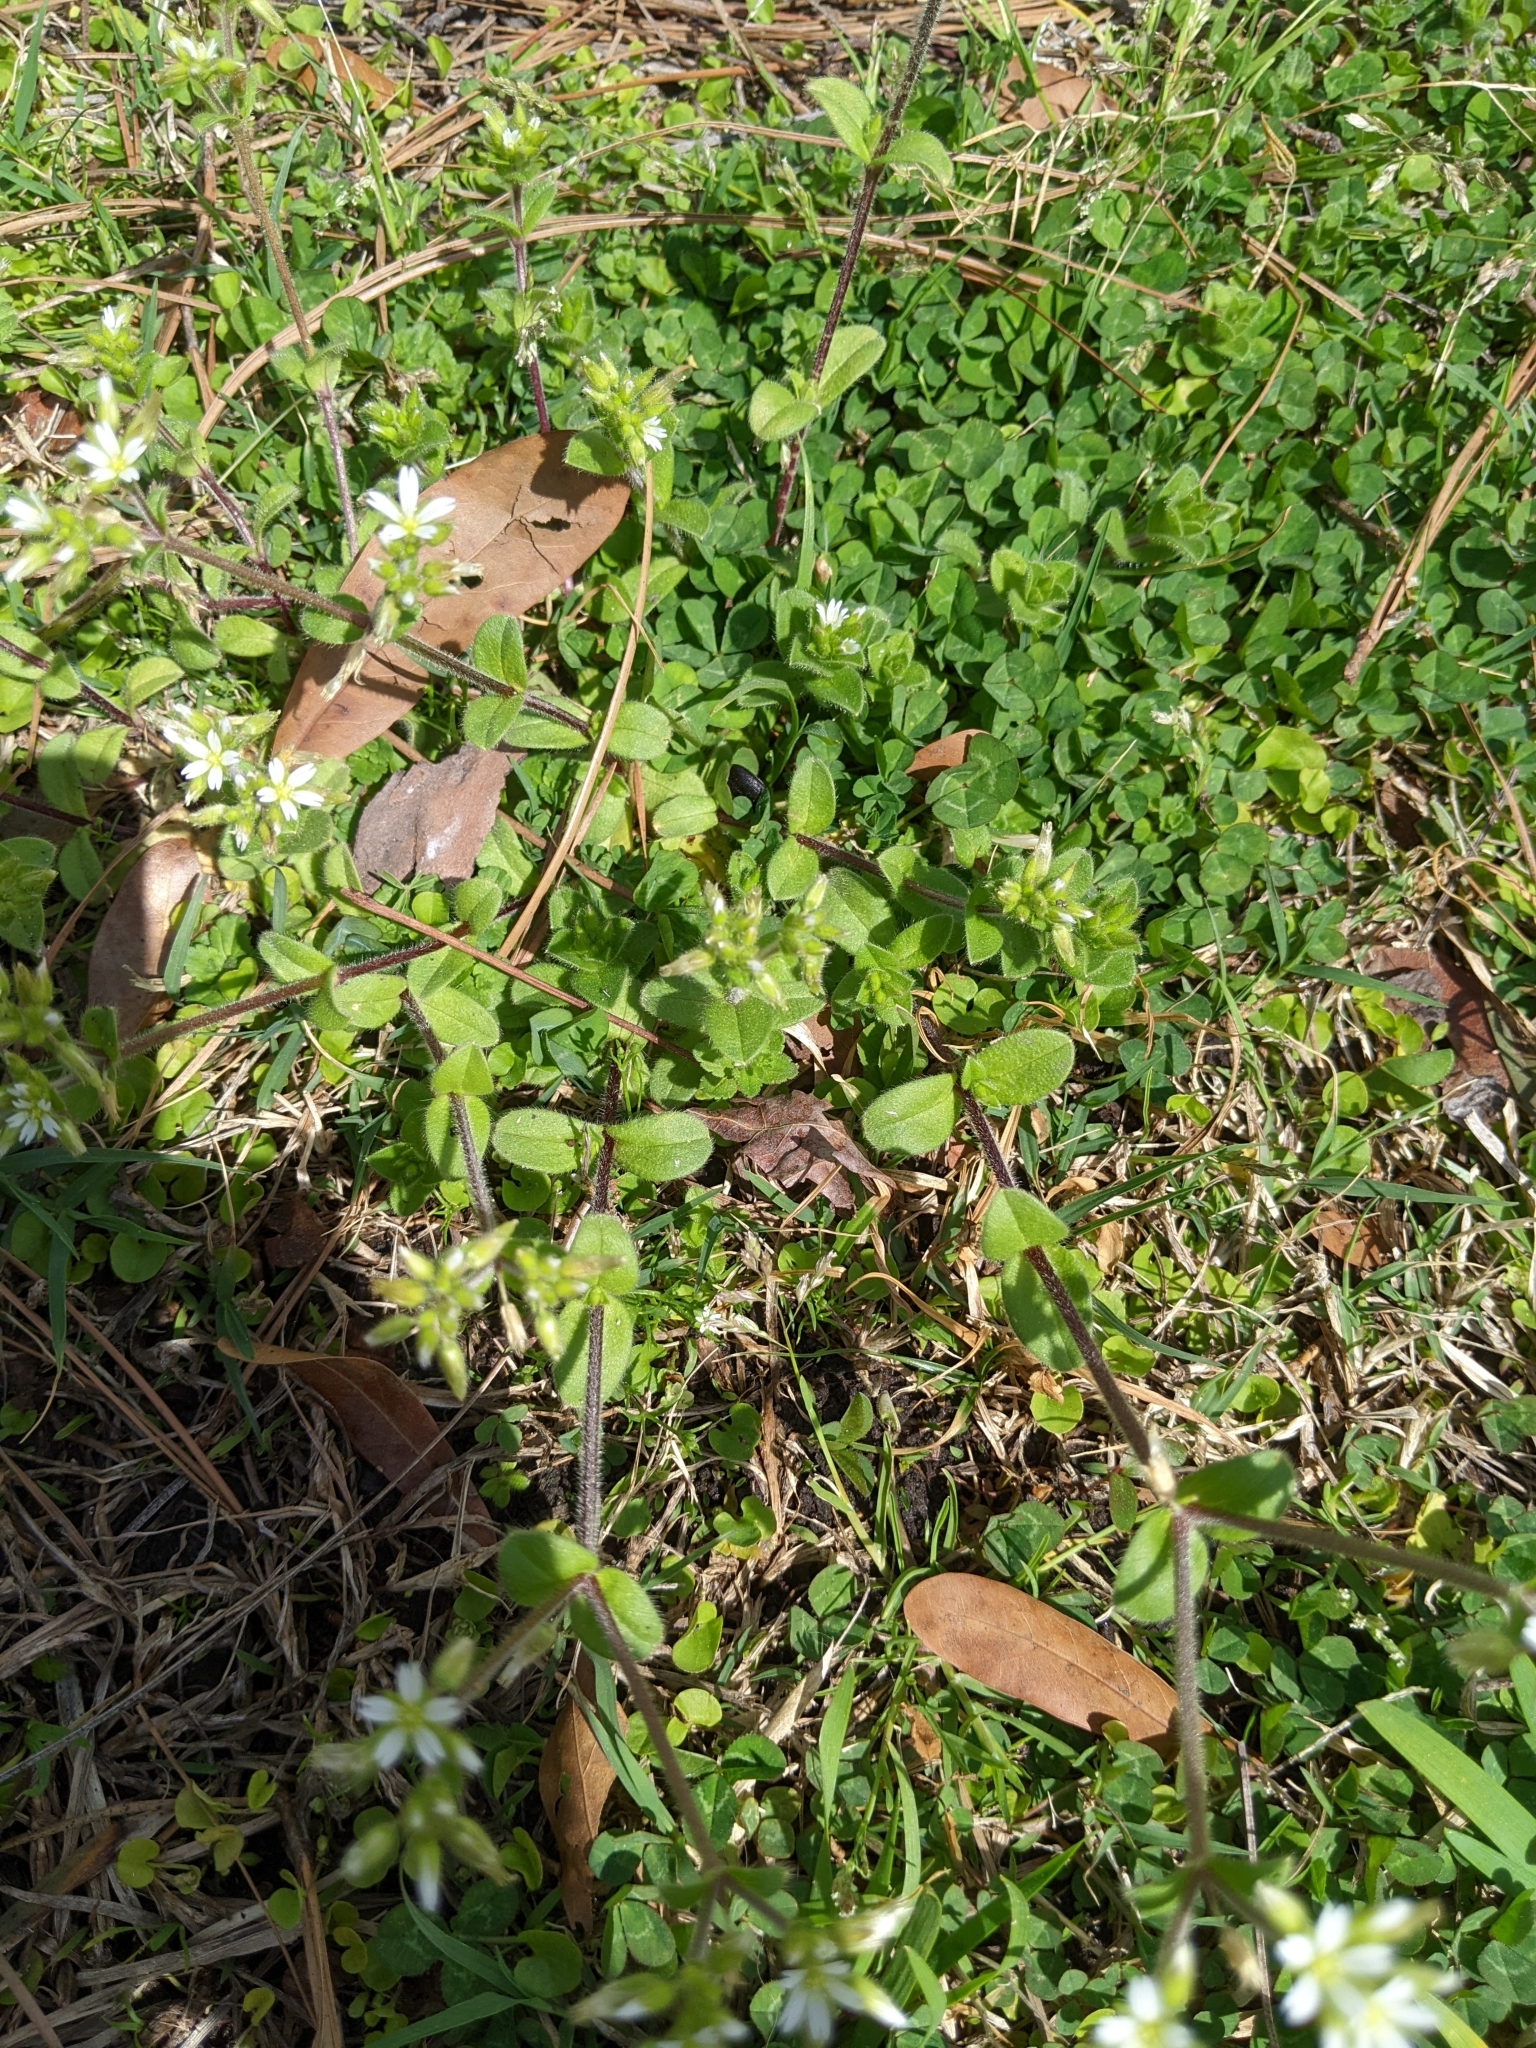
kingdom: Plantae
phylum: Tracheophyta
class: Magnoliopsida
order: Caryophyllales
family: Caryophyllaceae
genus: Cerastium
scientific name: Cerastium glomeratum
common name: Sticky chickweed
